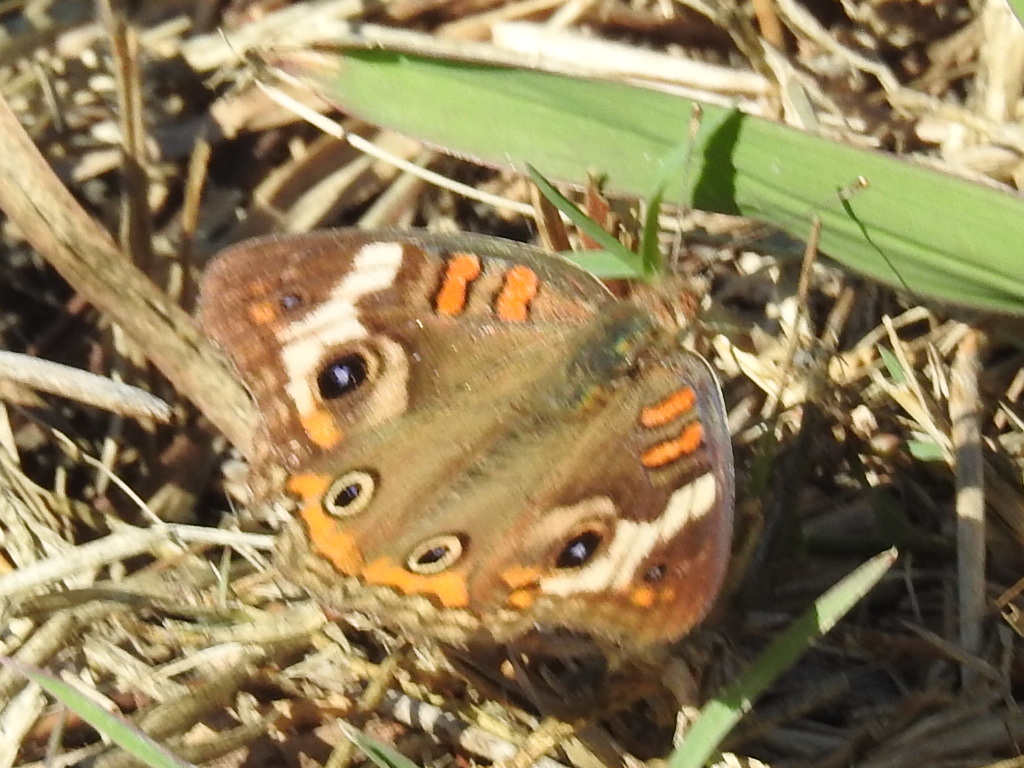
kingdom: Animalia
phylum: Arthropoda
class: Insecta
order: Lepidoptera
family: Nymphalidae
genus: Junonia
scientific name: Junonia coenia
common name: Common buckeye
